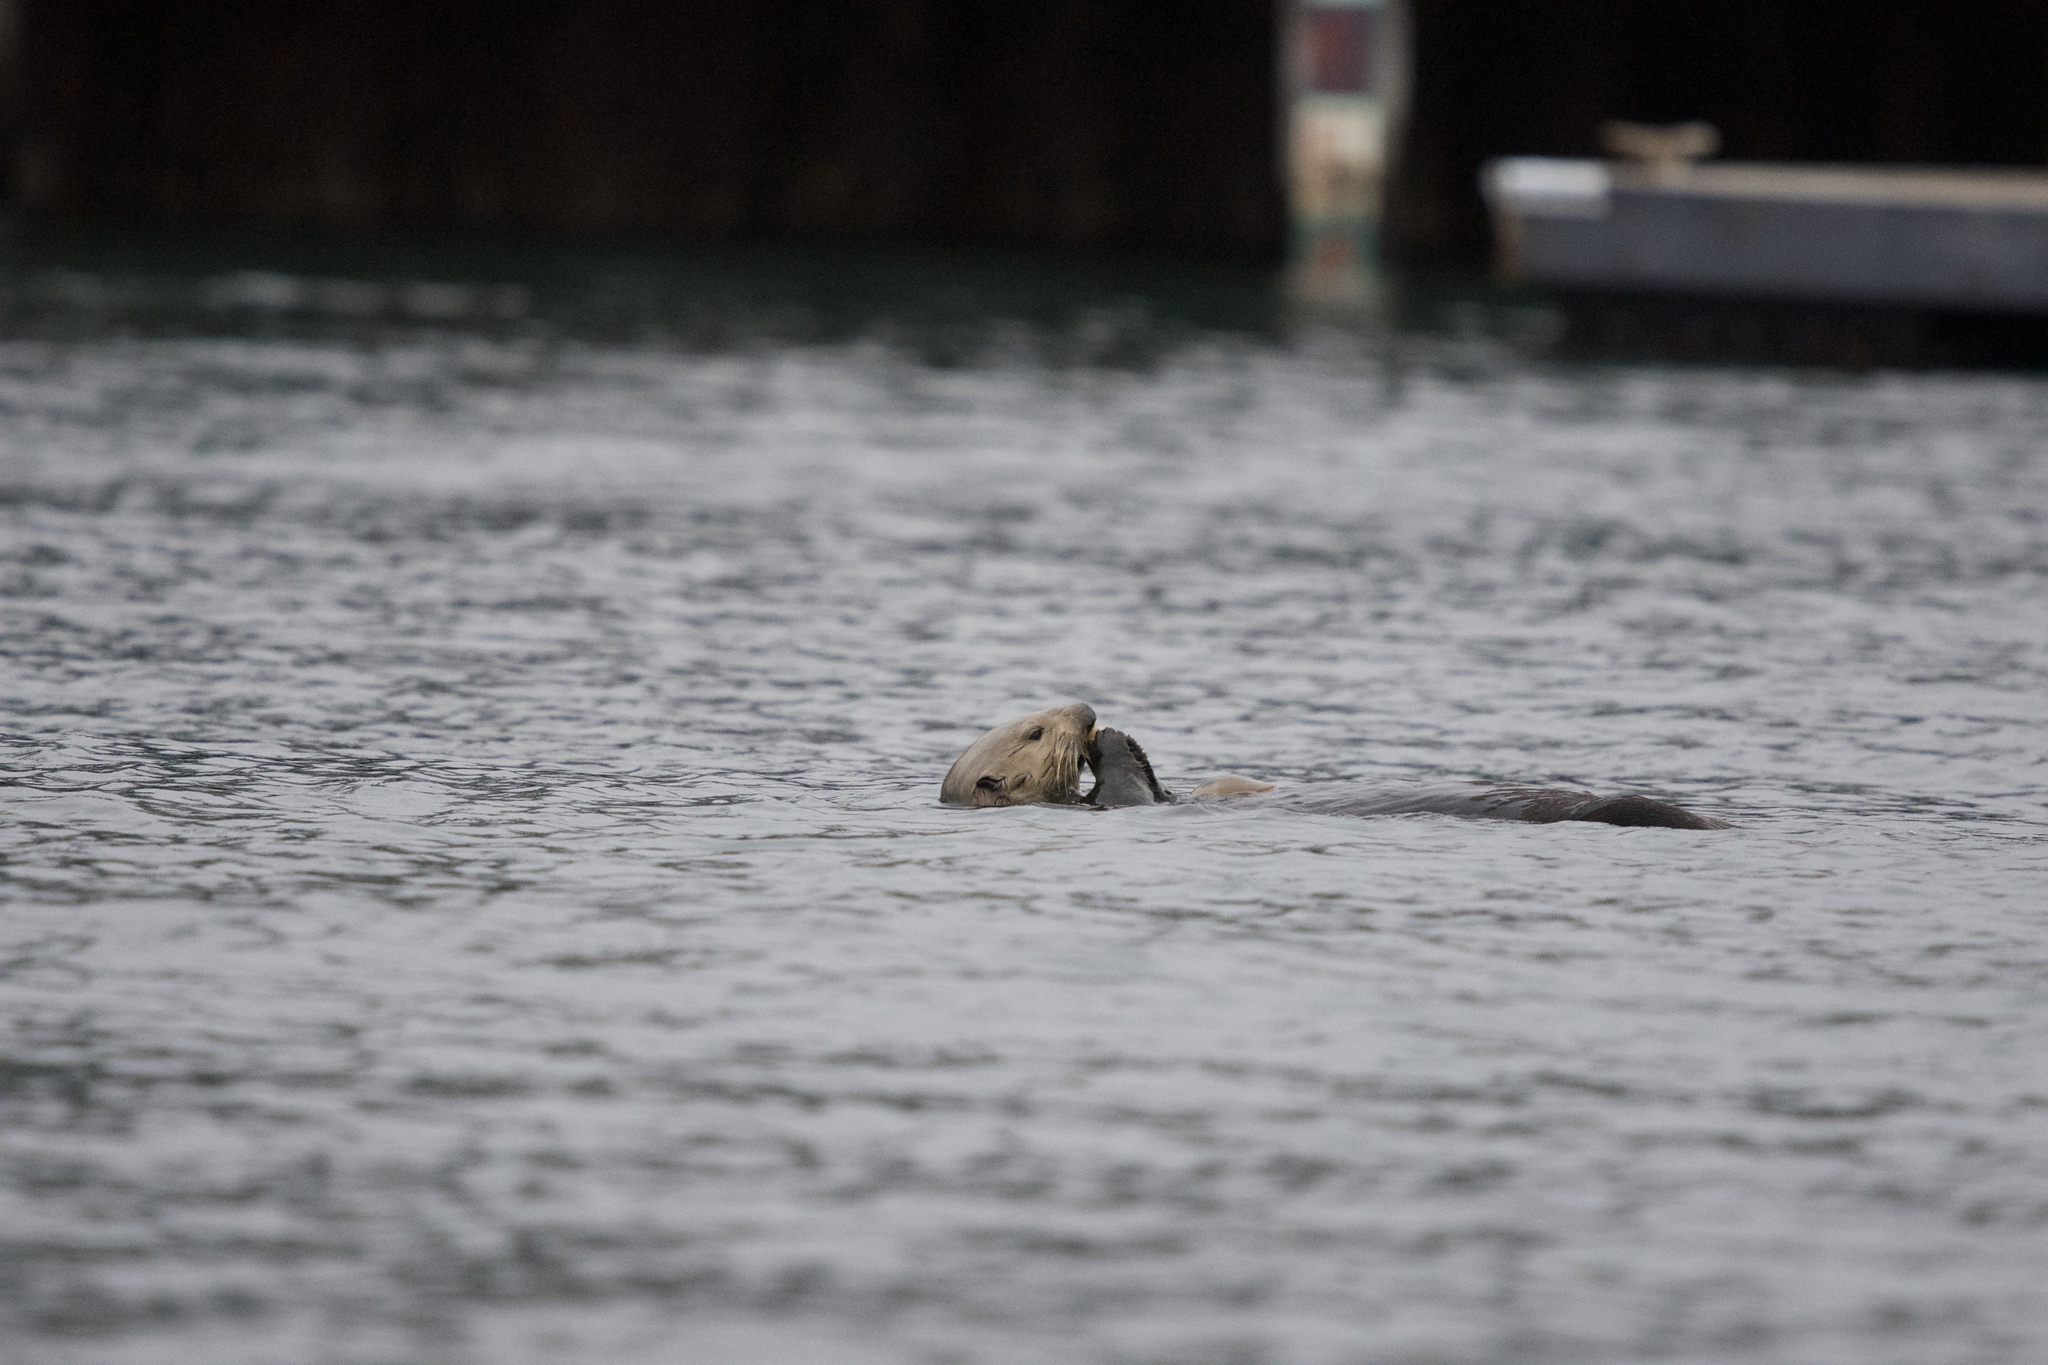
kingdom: Animalia
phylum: Chordata
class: Mammalia
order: Carnivora
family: Mustelidae
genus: Enhydra
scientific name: Enhydra lutris
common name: Sea otter
